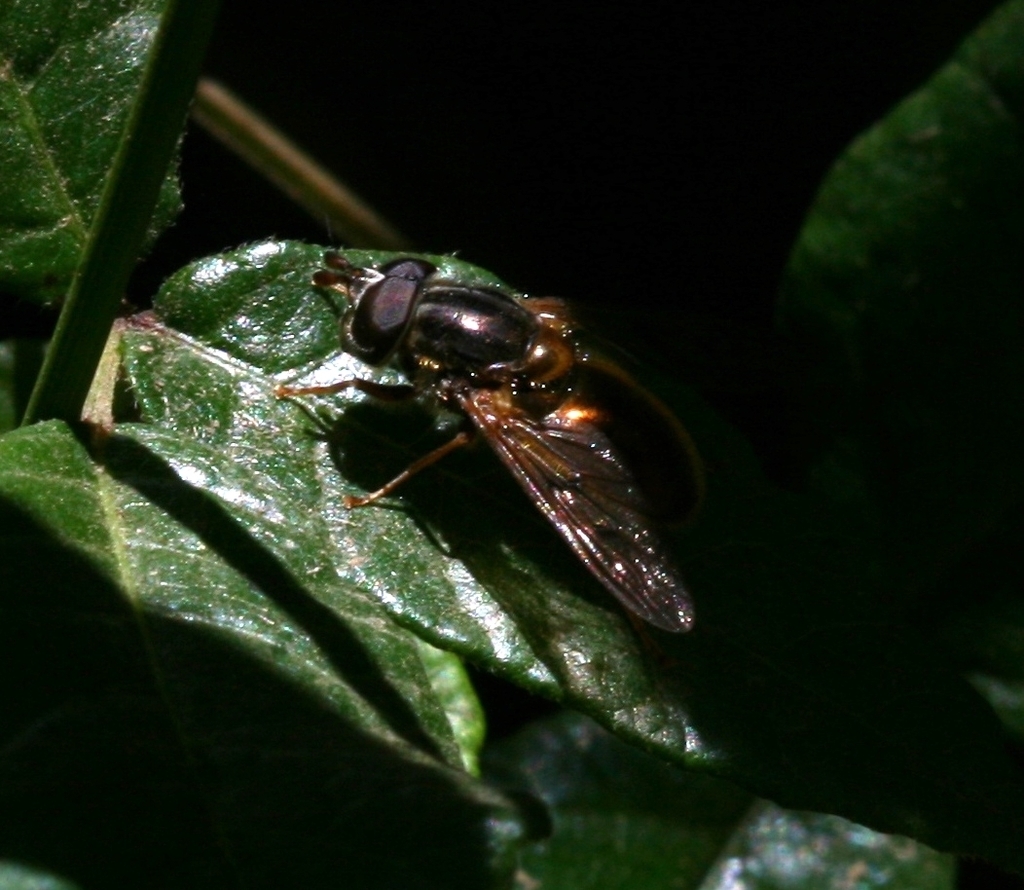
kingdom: Animalia
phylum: Arthropoda
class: Insecta
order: Diptera
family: Syrphidae
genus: Ferdinandea
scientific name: Ferdinandea croesus
